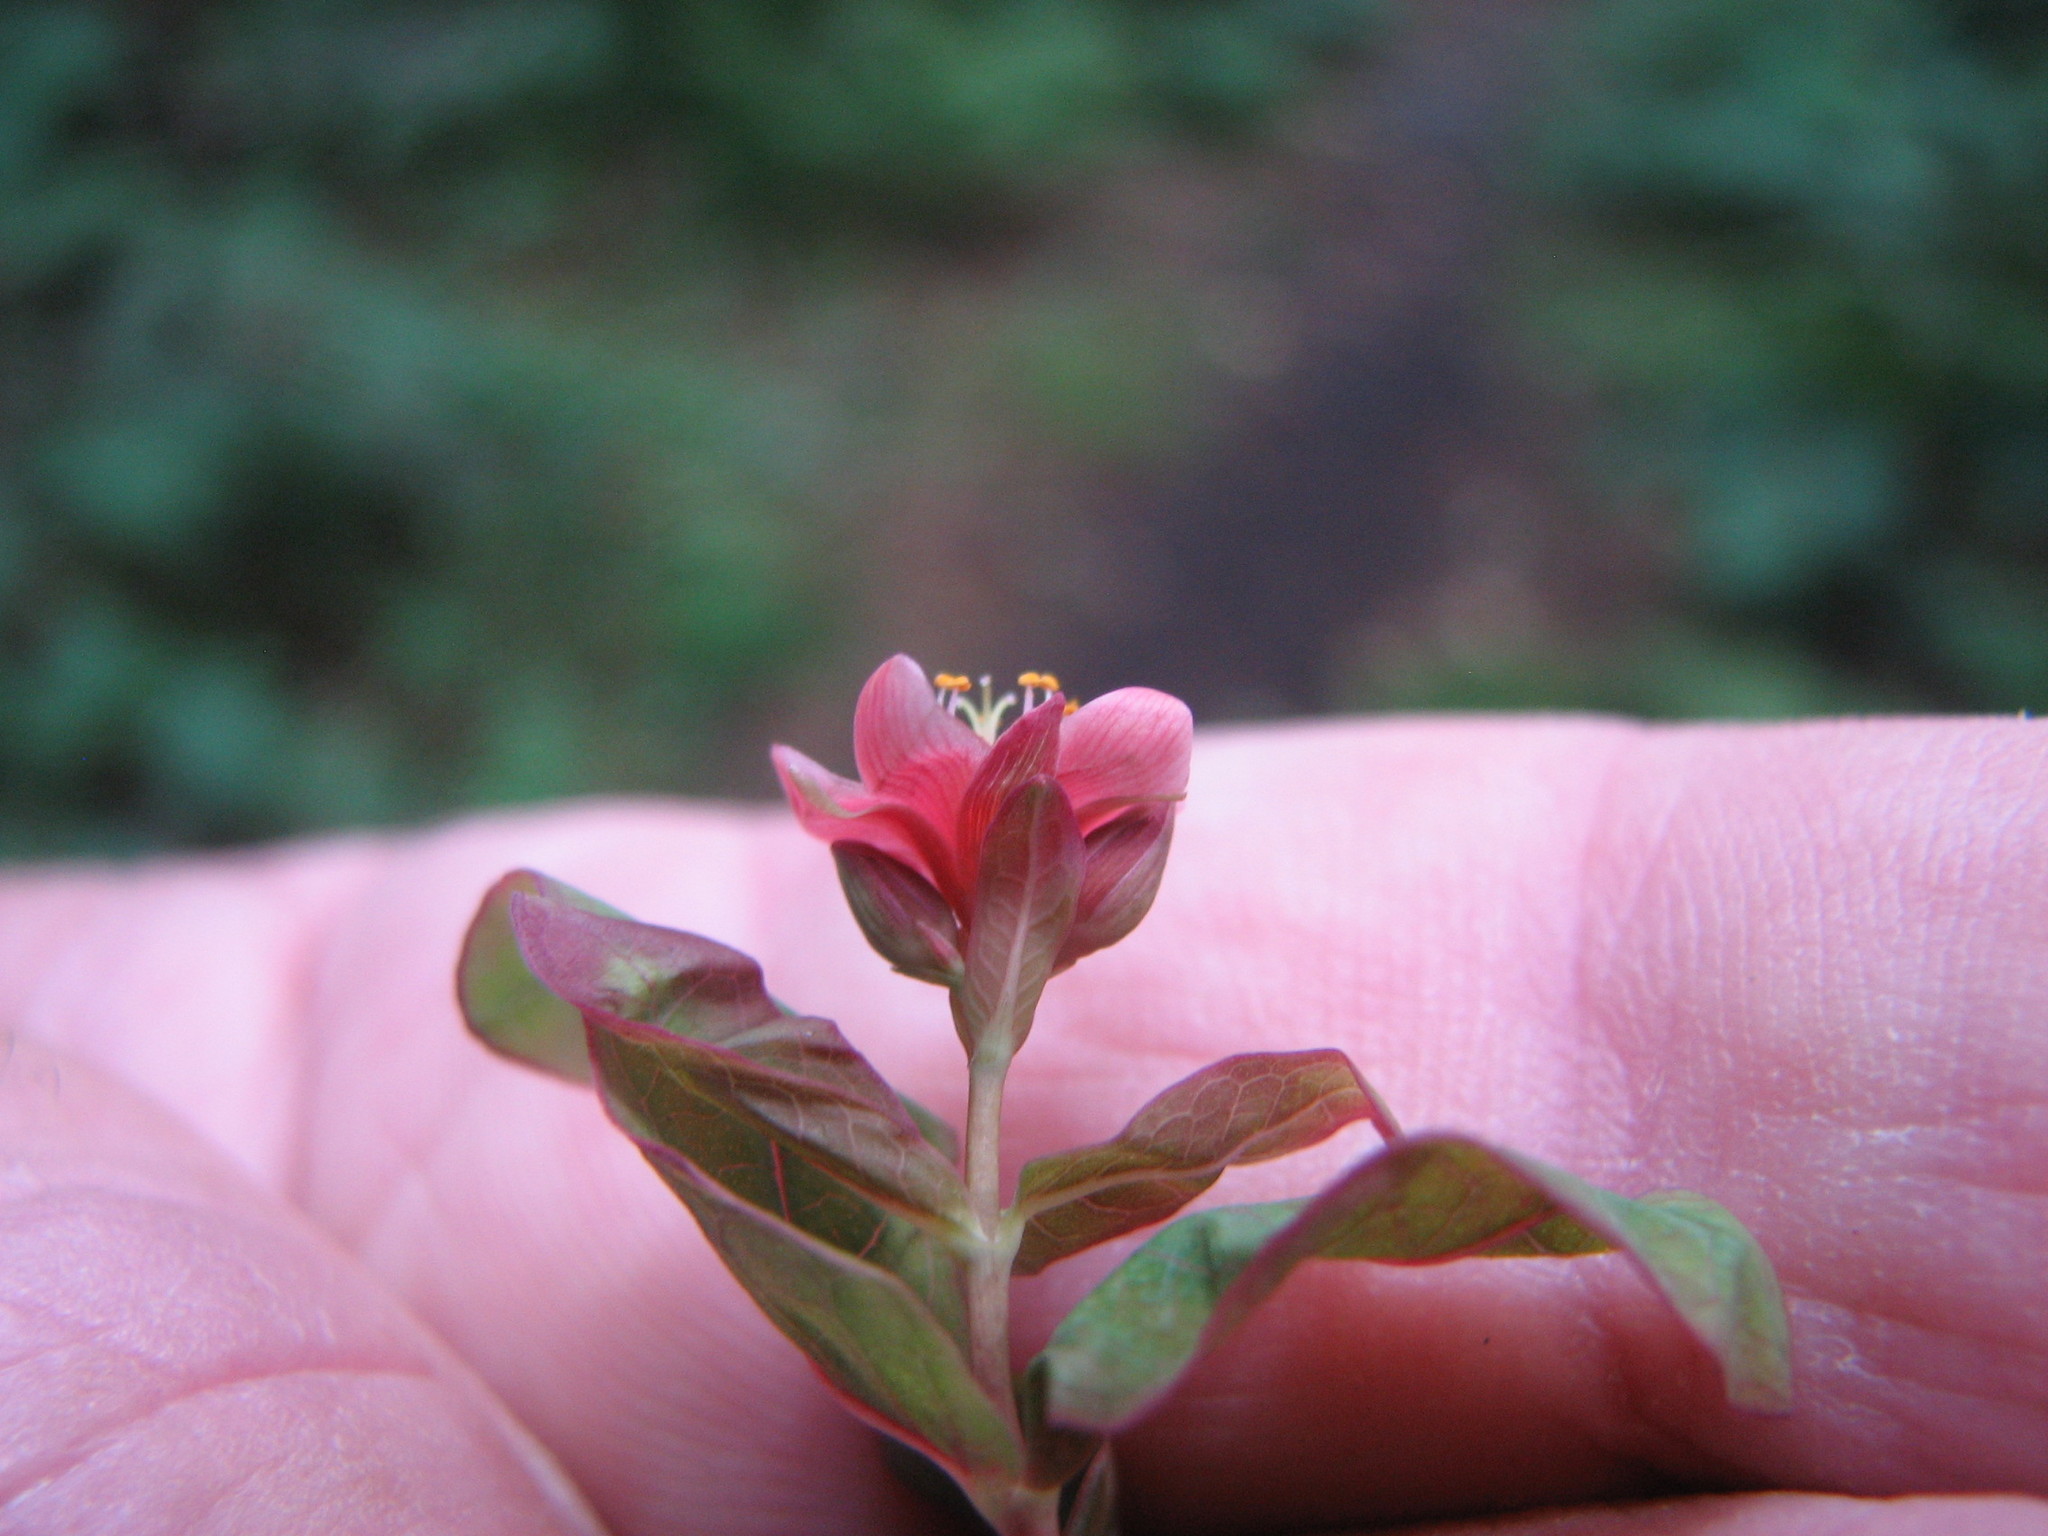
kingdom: Plantae
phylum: Tracheophyta
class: Magnoliopsida
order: Malpighiales
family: Hypericaceae
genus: Triadenum
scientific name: Triadenum virginicum
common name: Marsh st. john's-wort
